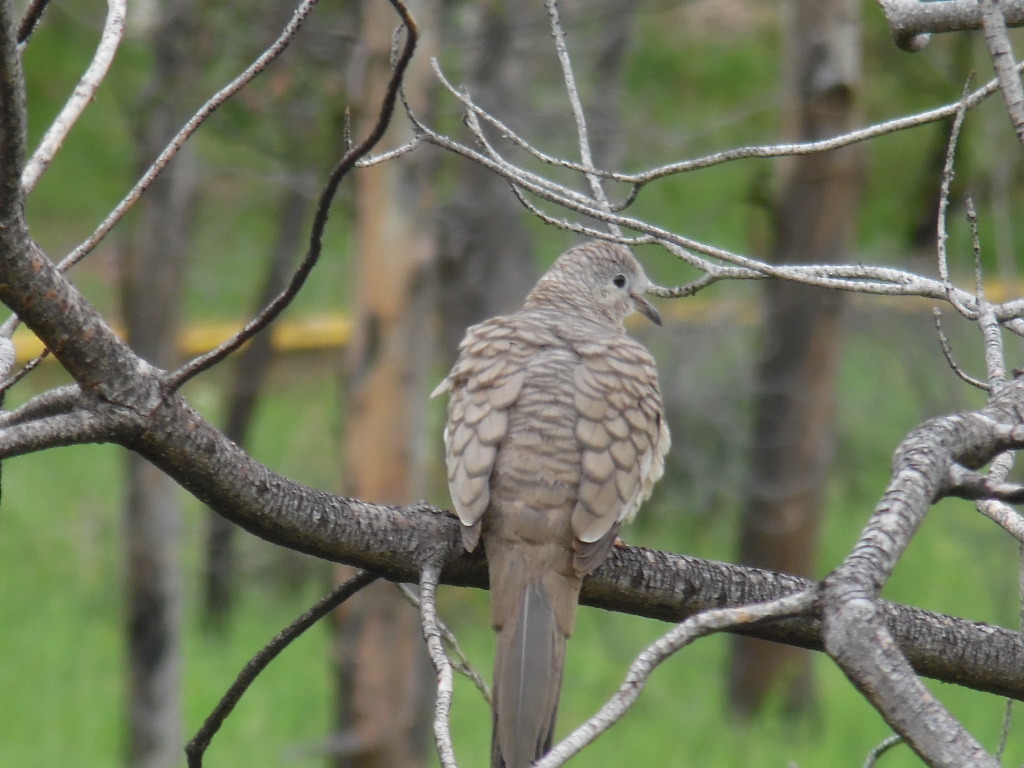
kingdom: Animalia
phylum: Chordata
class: Aves
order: Columbiformes
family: Columbidae
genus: Columbina
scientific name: Columbina inca
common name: Inca dove
